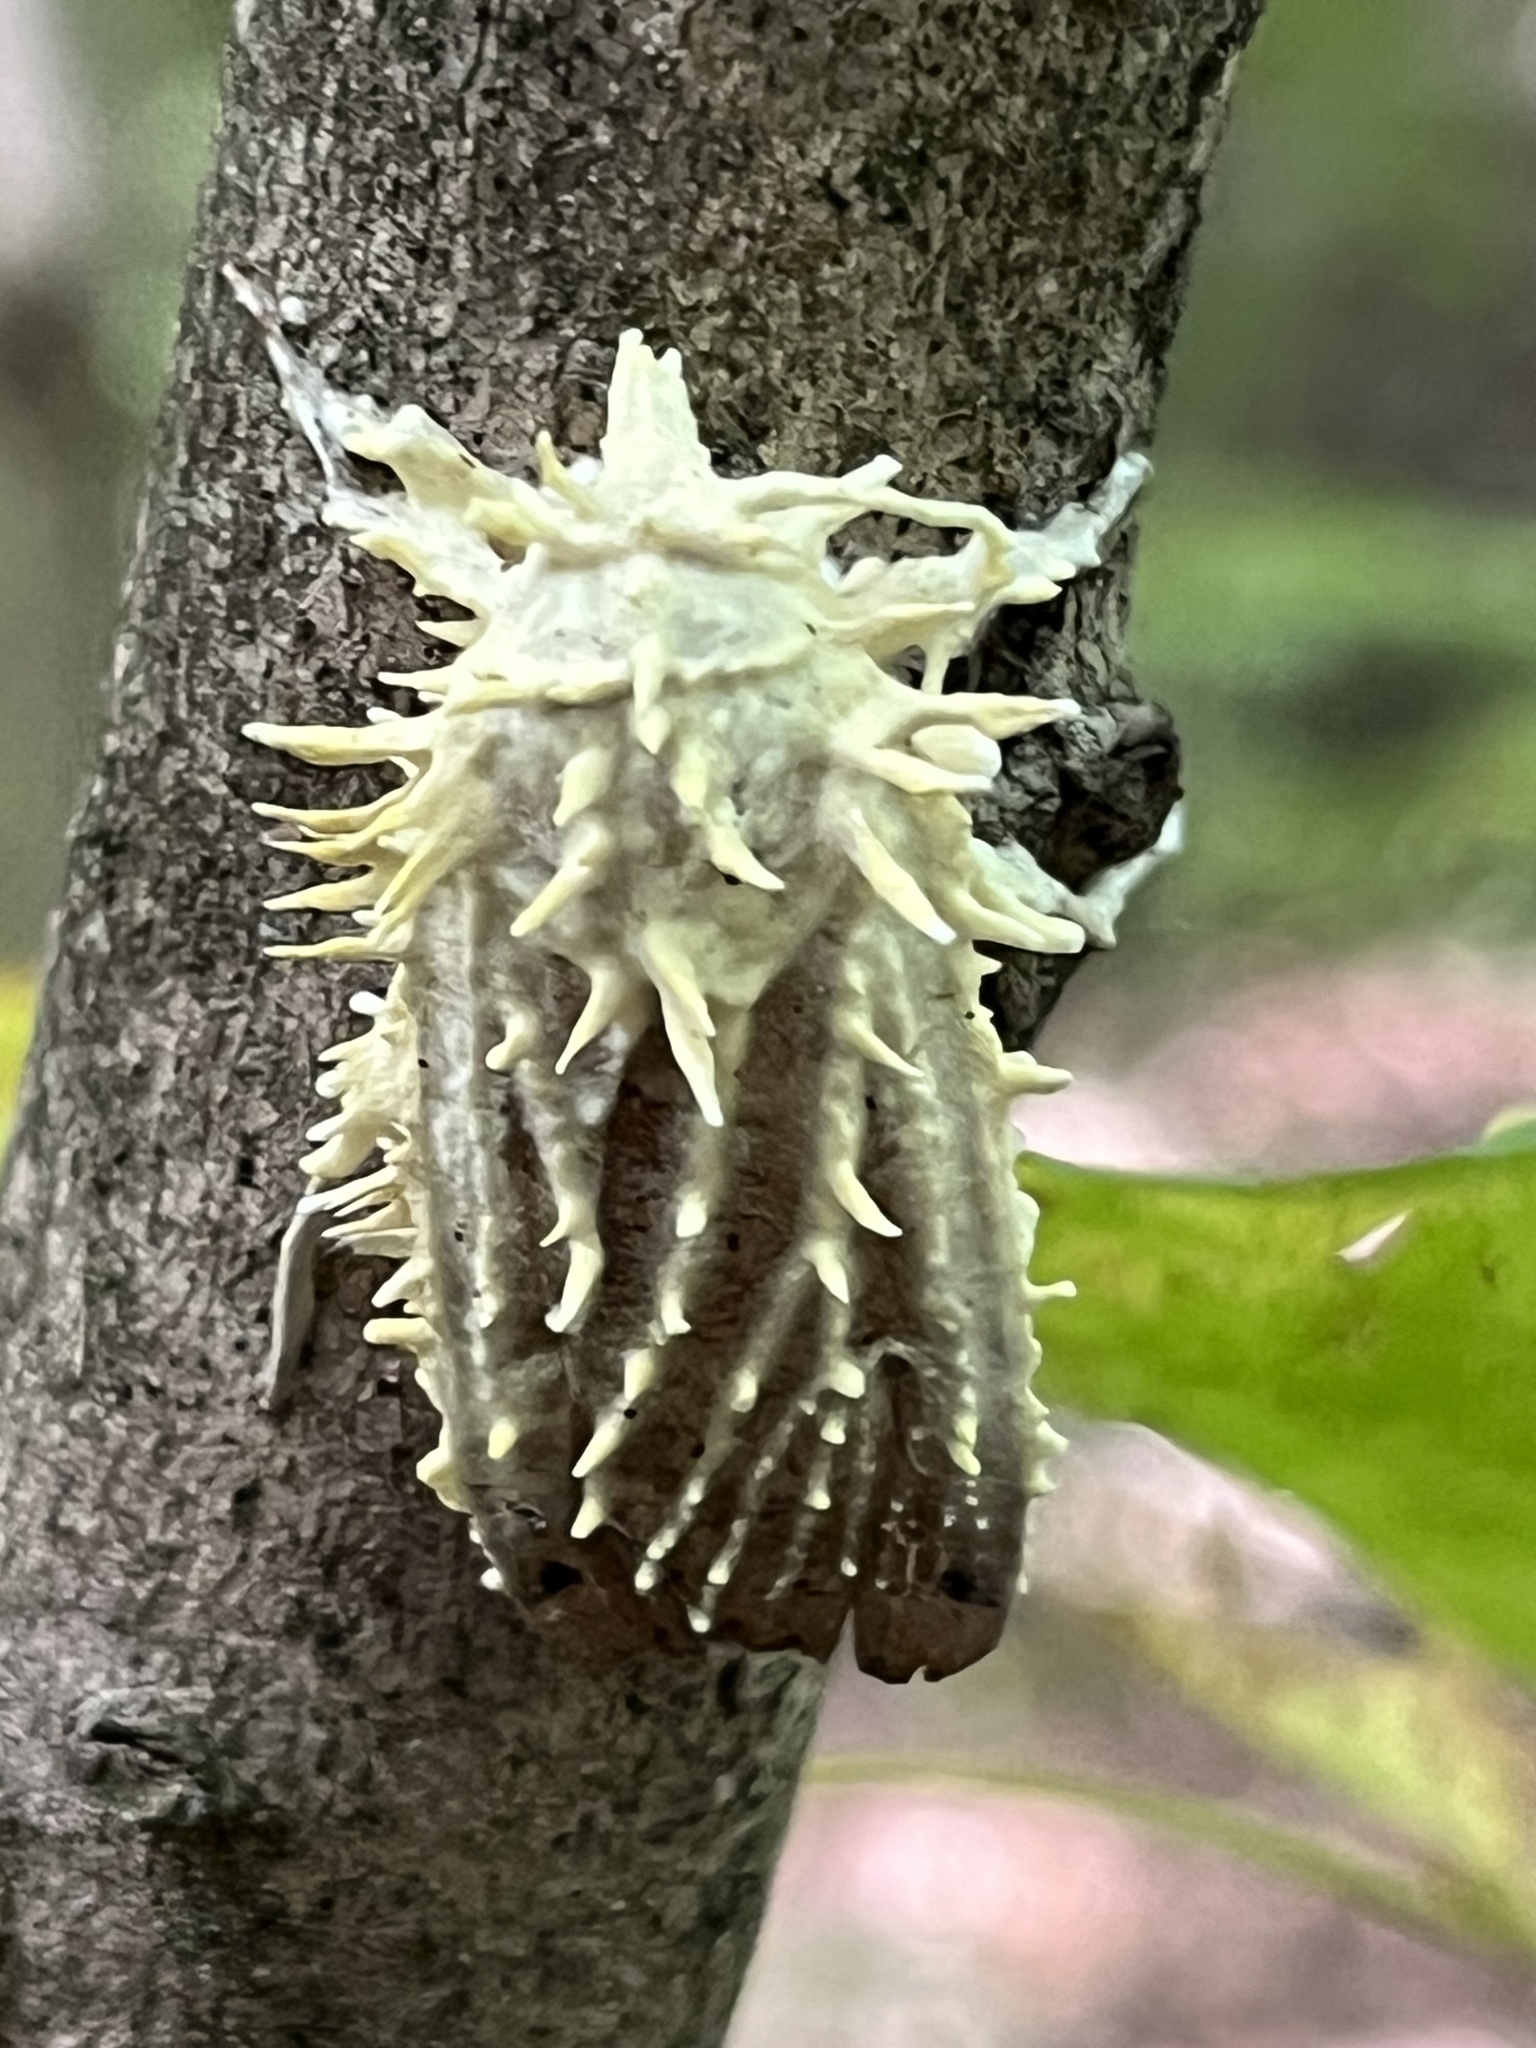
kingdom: Fungi
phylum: Ascomycota
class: Sordariomycetes
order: Hypocreales
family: Cordycipitaceae
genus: Akanthomyces
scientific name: Akanthomyces aculeatus
